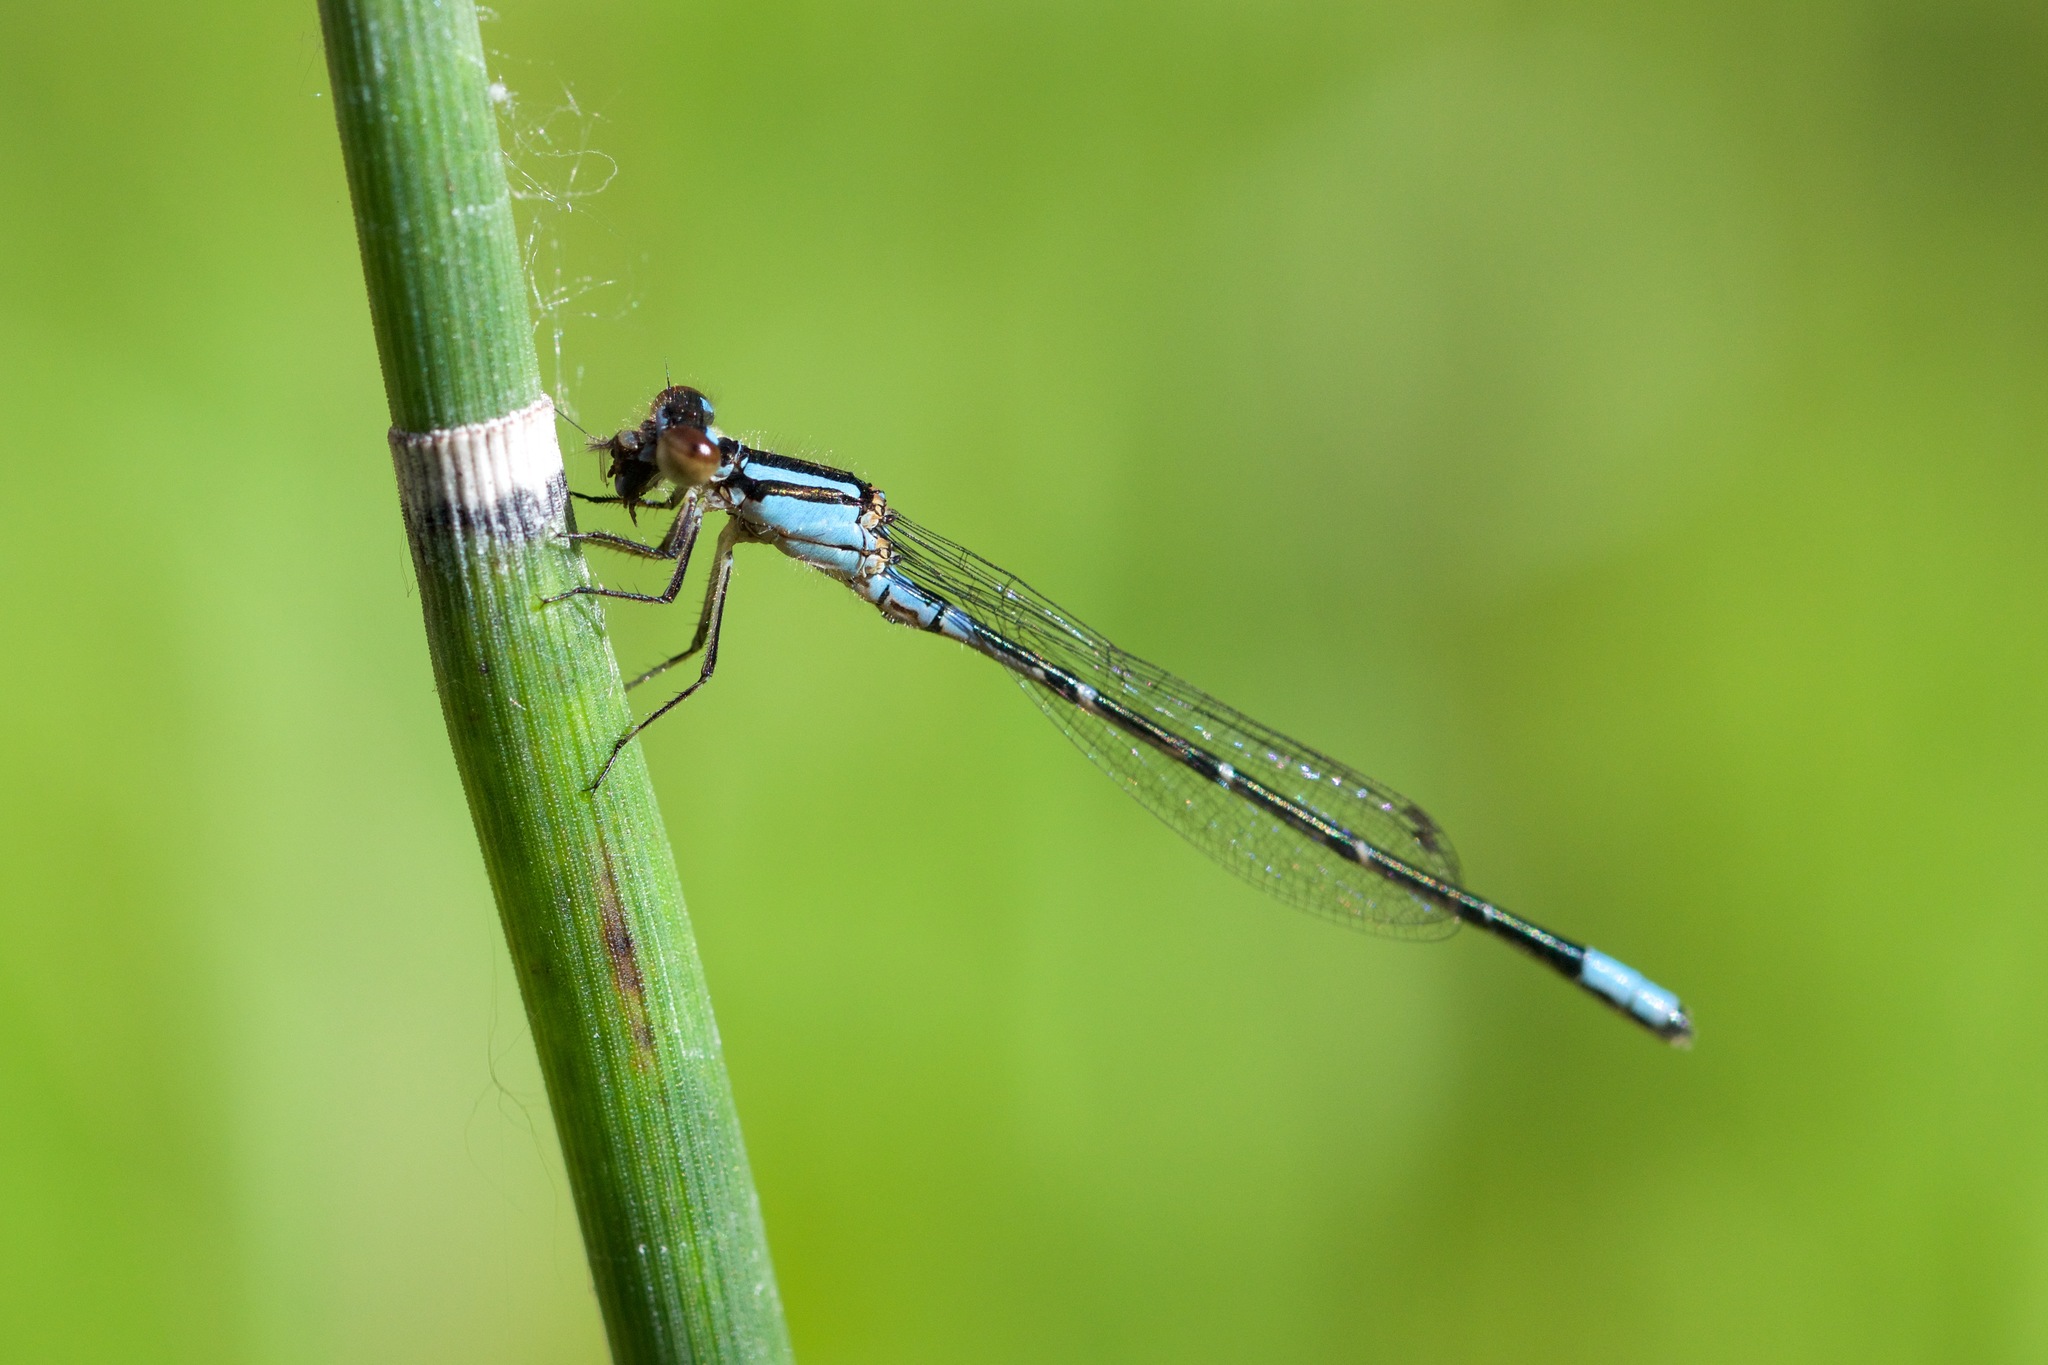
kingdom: Animalia
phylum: Arthropoda
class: Insecta
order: Odonata
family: Coenagrionidae
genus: Enallagma
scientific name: Enallagma geminatum
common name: Skimming bluet
